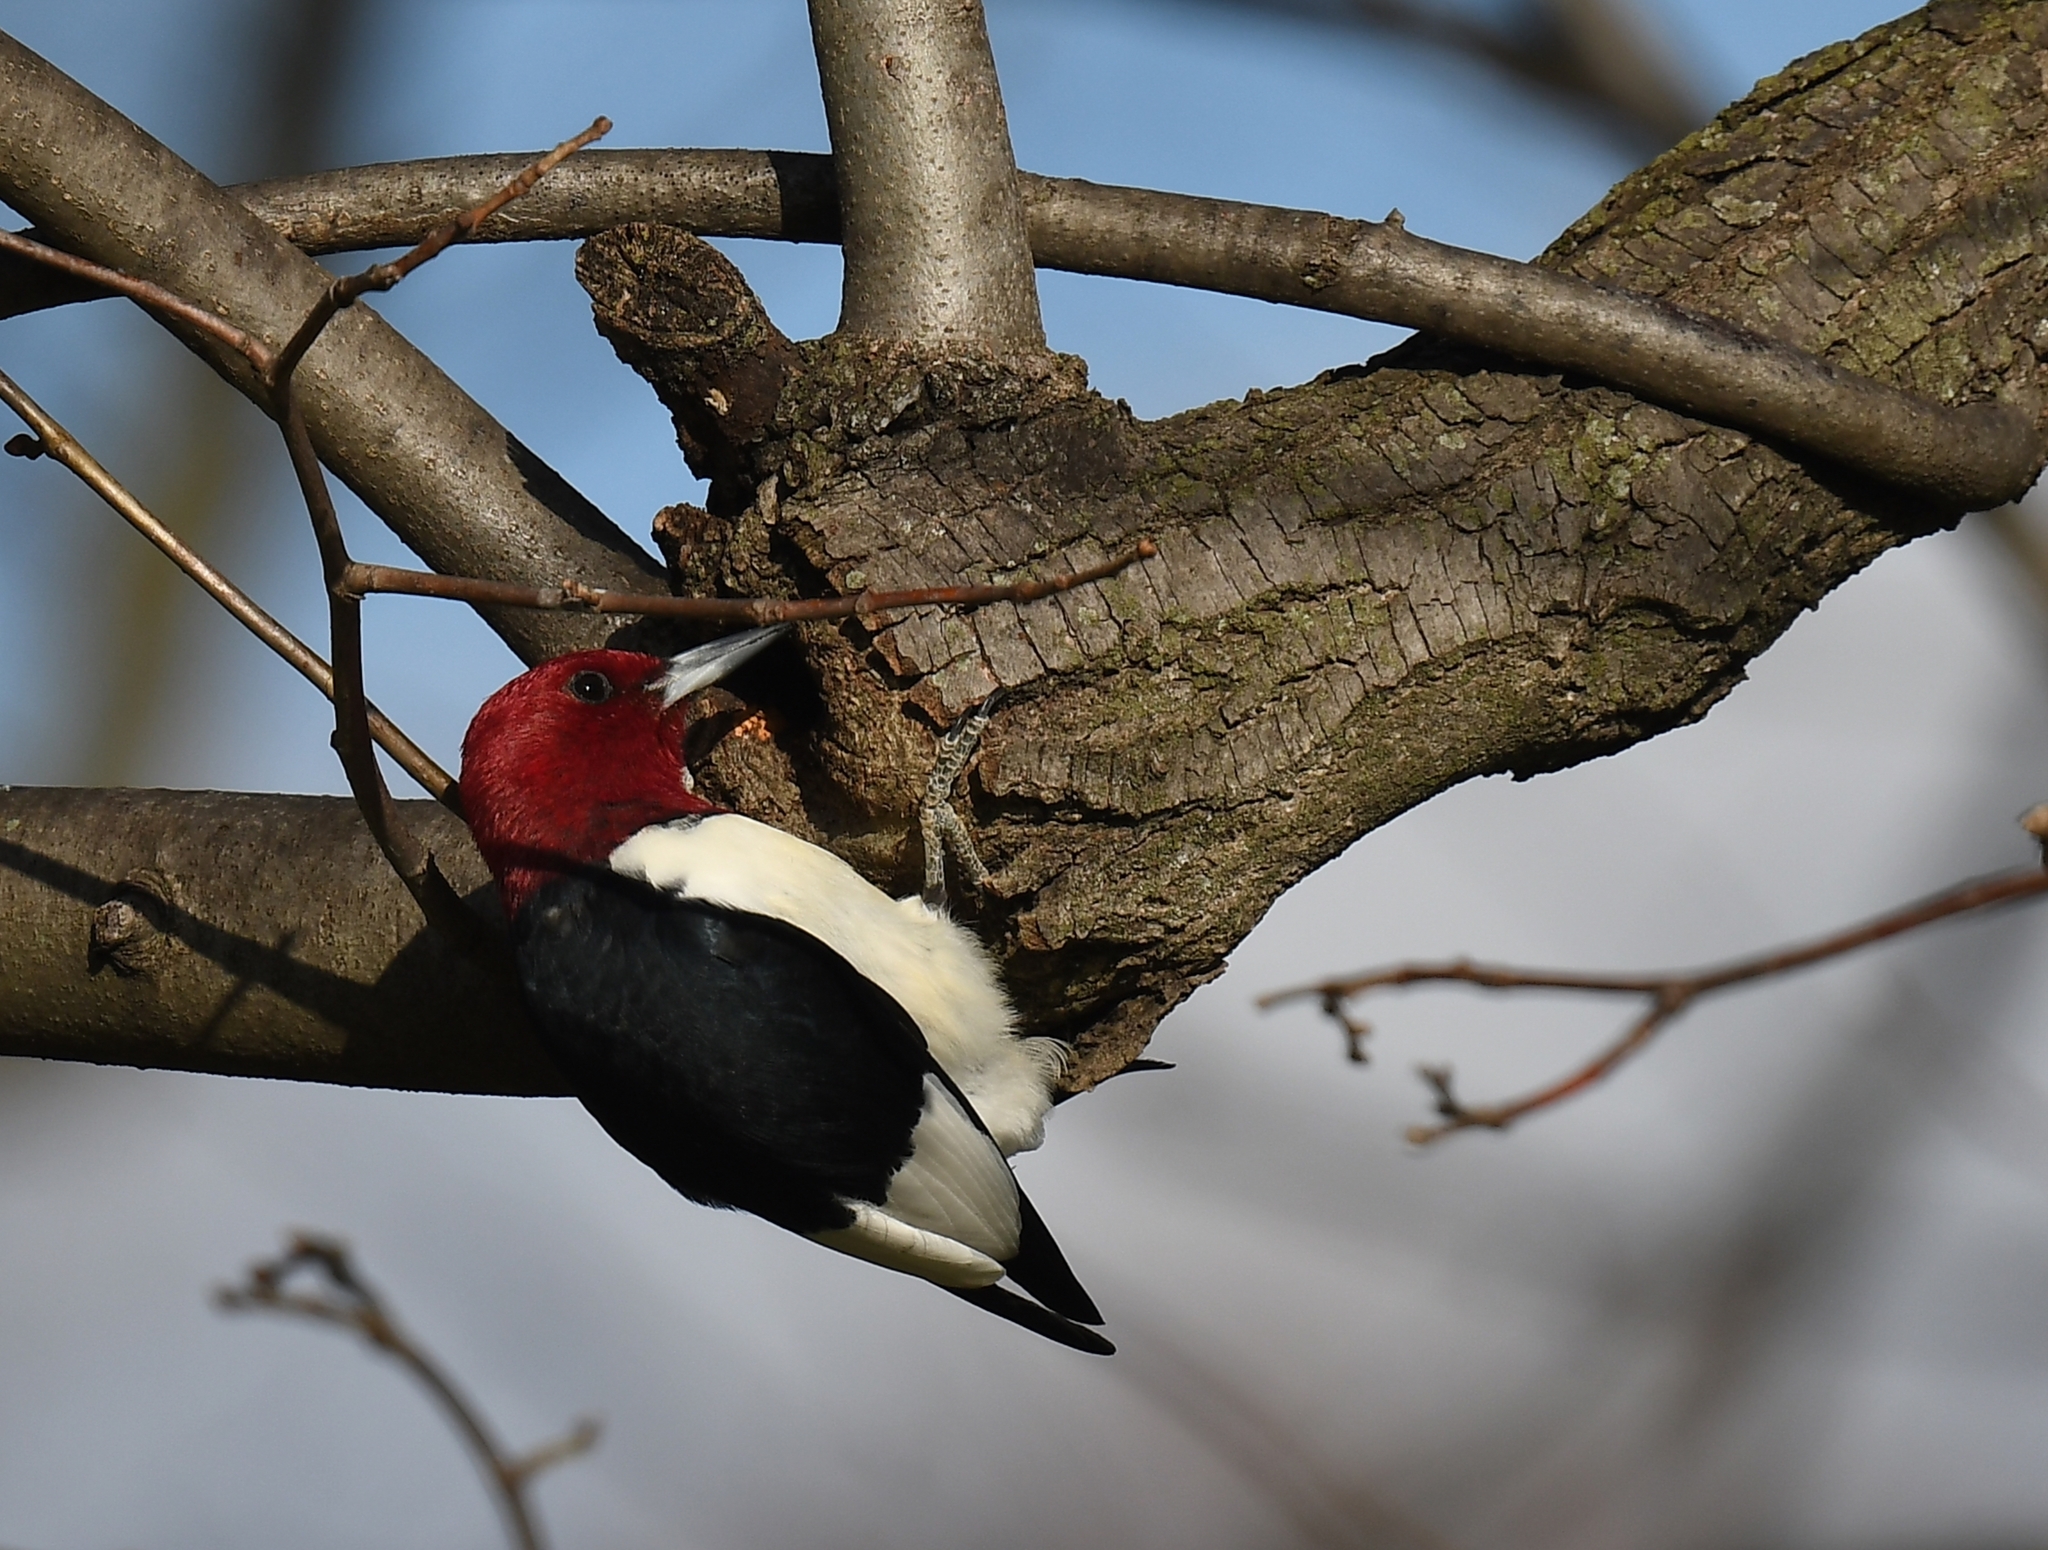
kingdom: Animalia
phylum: Chordata
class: Aves
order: Piciformes
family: Picidae
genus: Melanerpes
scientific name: Melanerpes erythrocephalus
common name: Red-headed woodpecker
